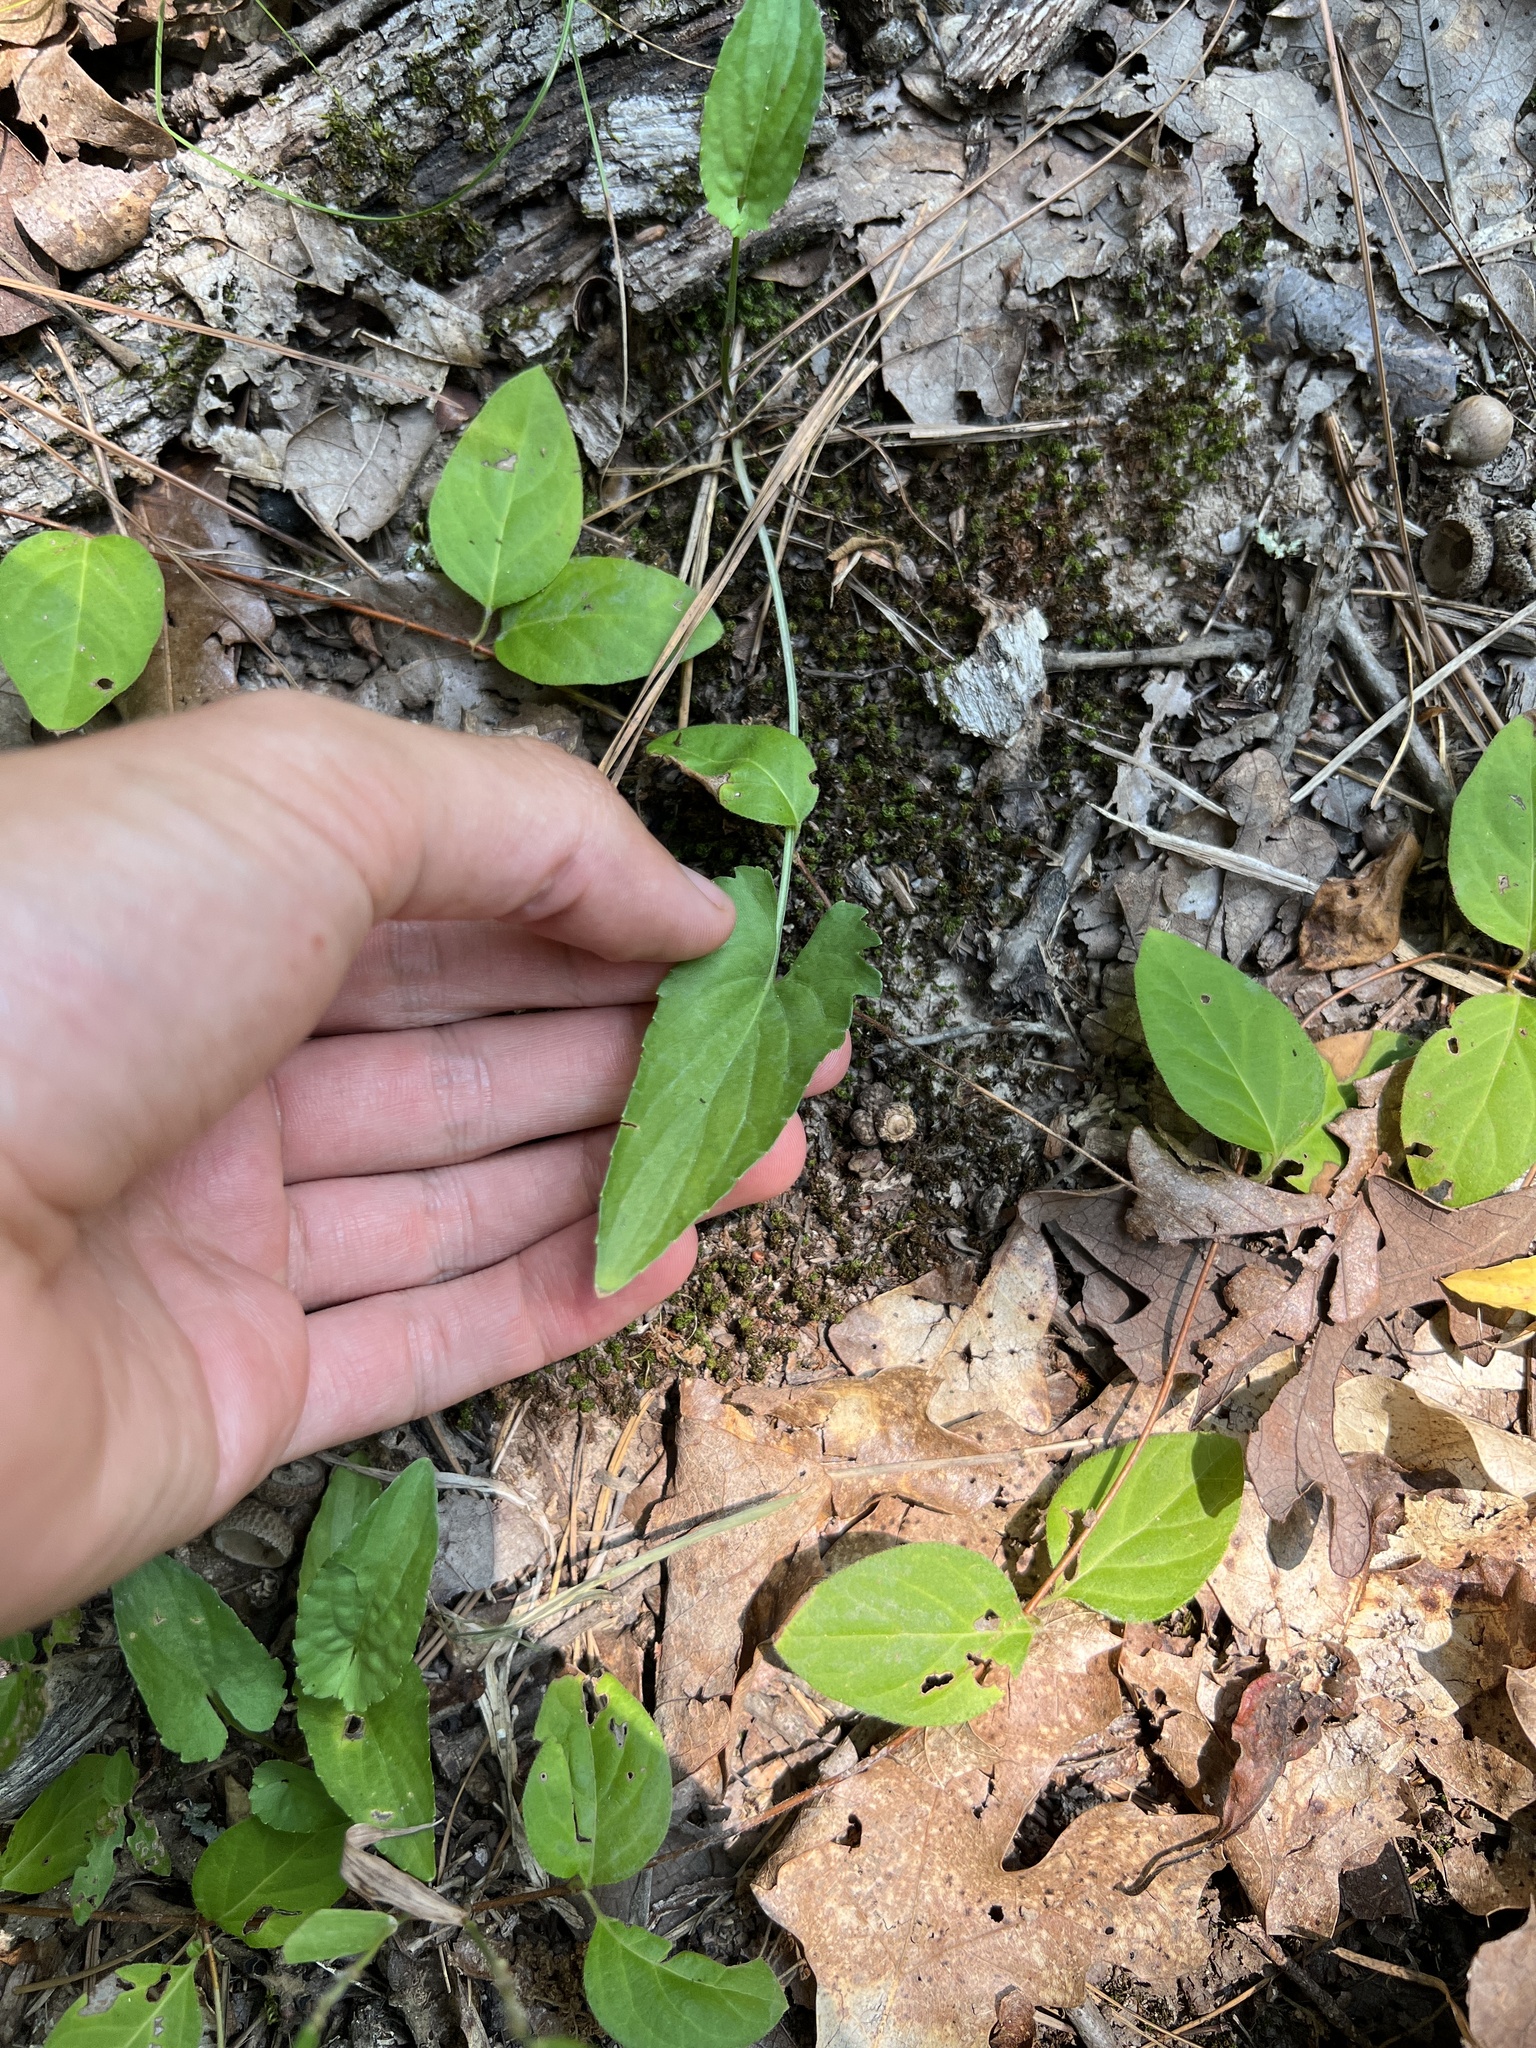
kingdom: Plantae
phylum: Tracheophyta
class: Magnoliopsida
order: Malpighiales
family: Violaceae
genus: Viola
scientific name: Viola sagittata
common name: Arrowhead violet
